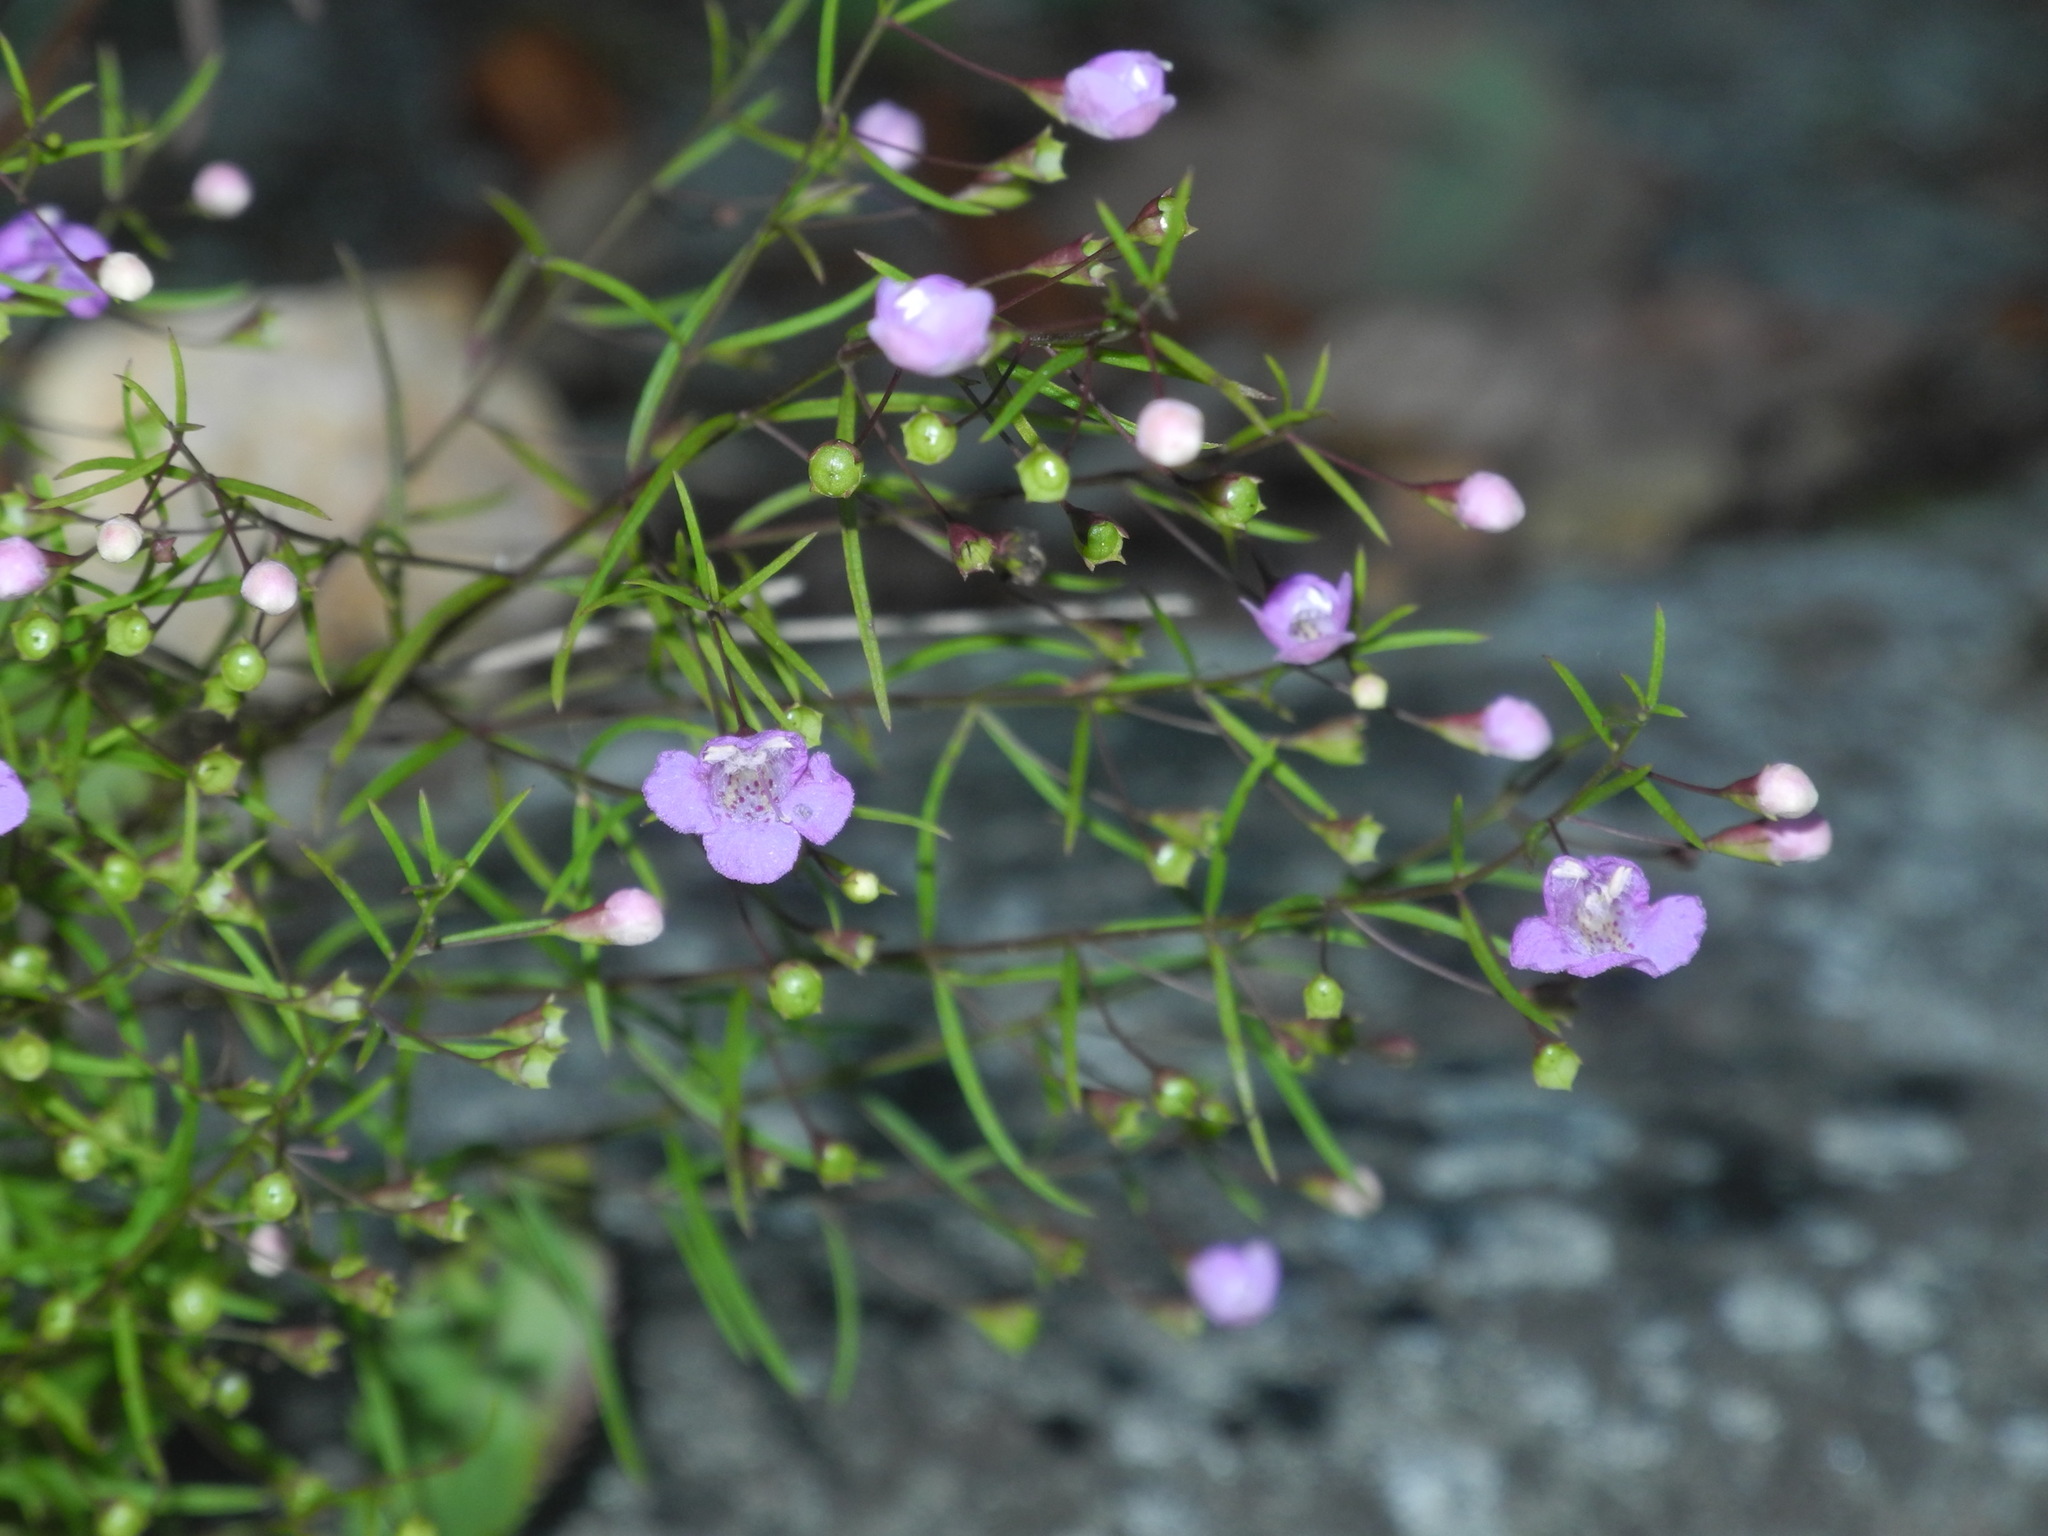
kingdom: Plantae
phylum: Tracheophyta
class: Magnoliopsida
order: Lamiales
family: Orobanchaceae
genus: Agalinis
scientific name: Agalinis tenuifolia
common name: Slender agalinis
